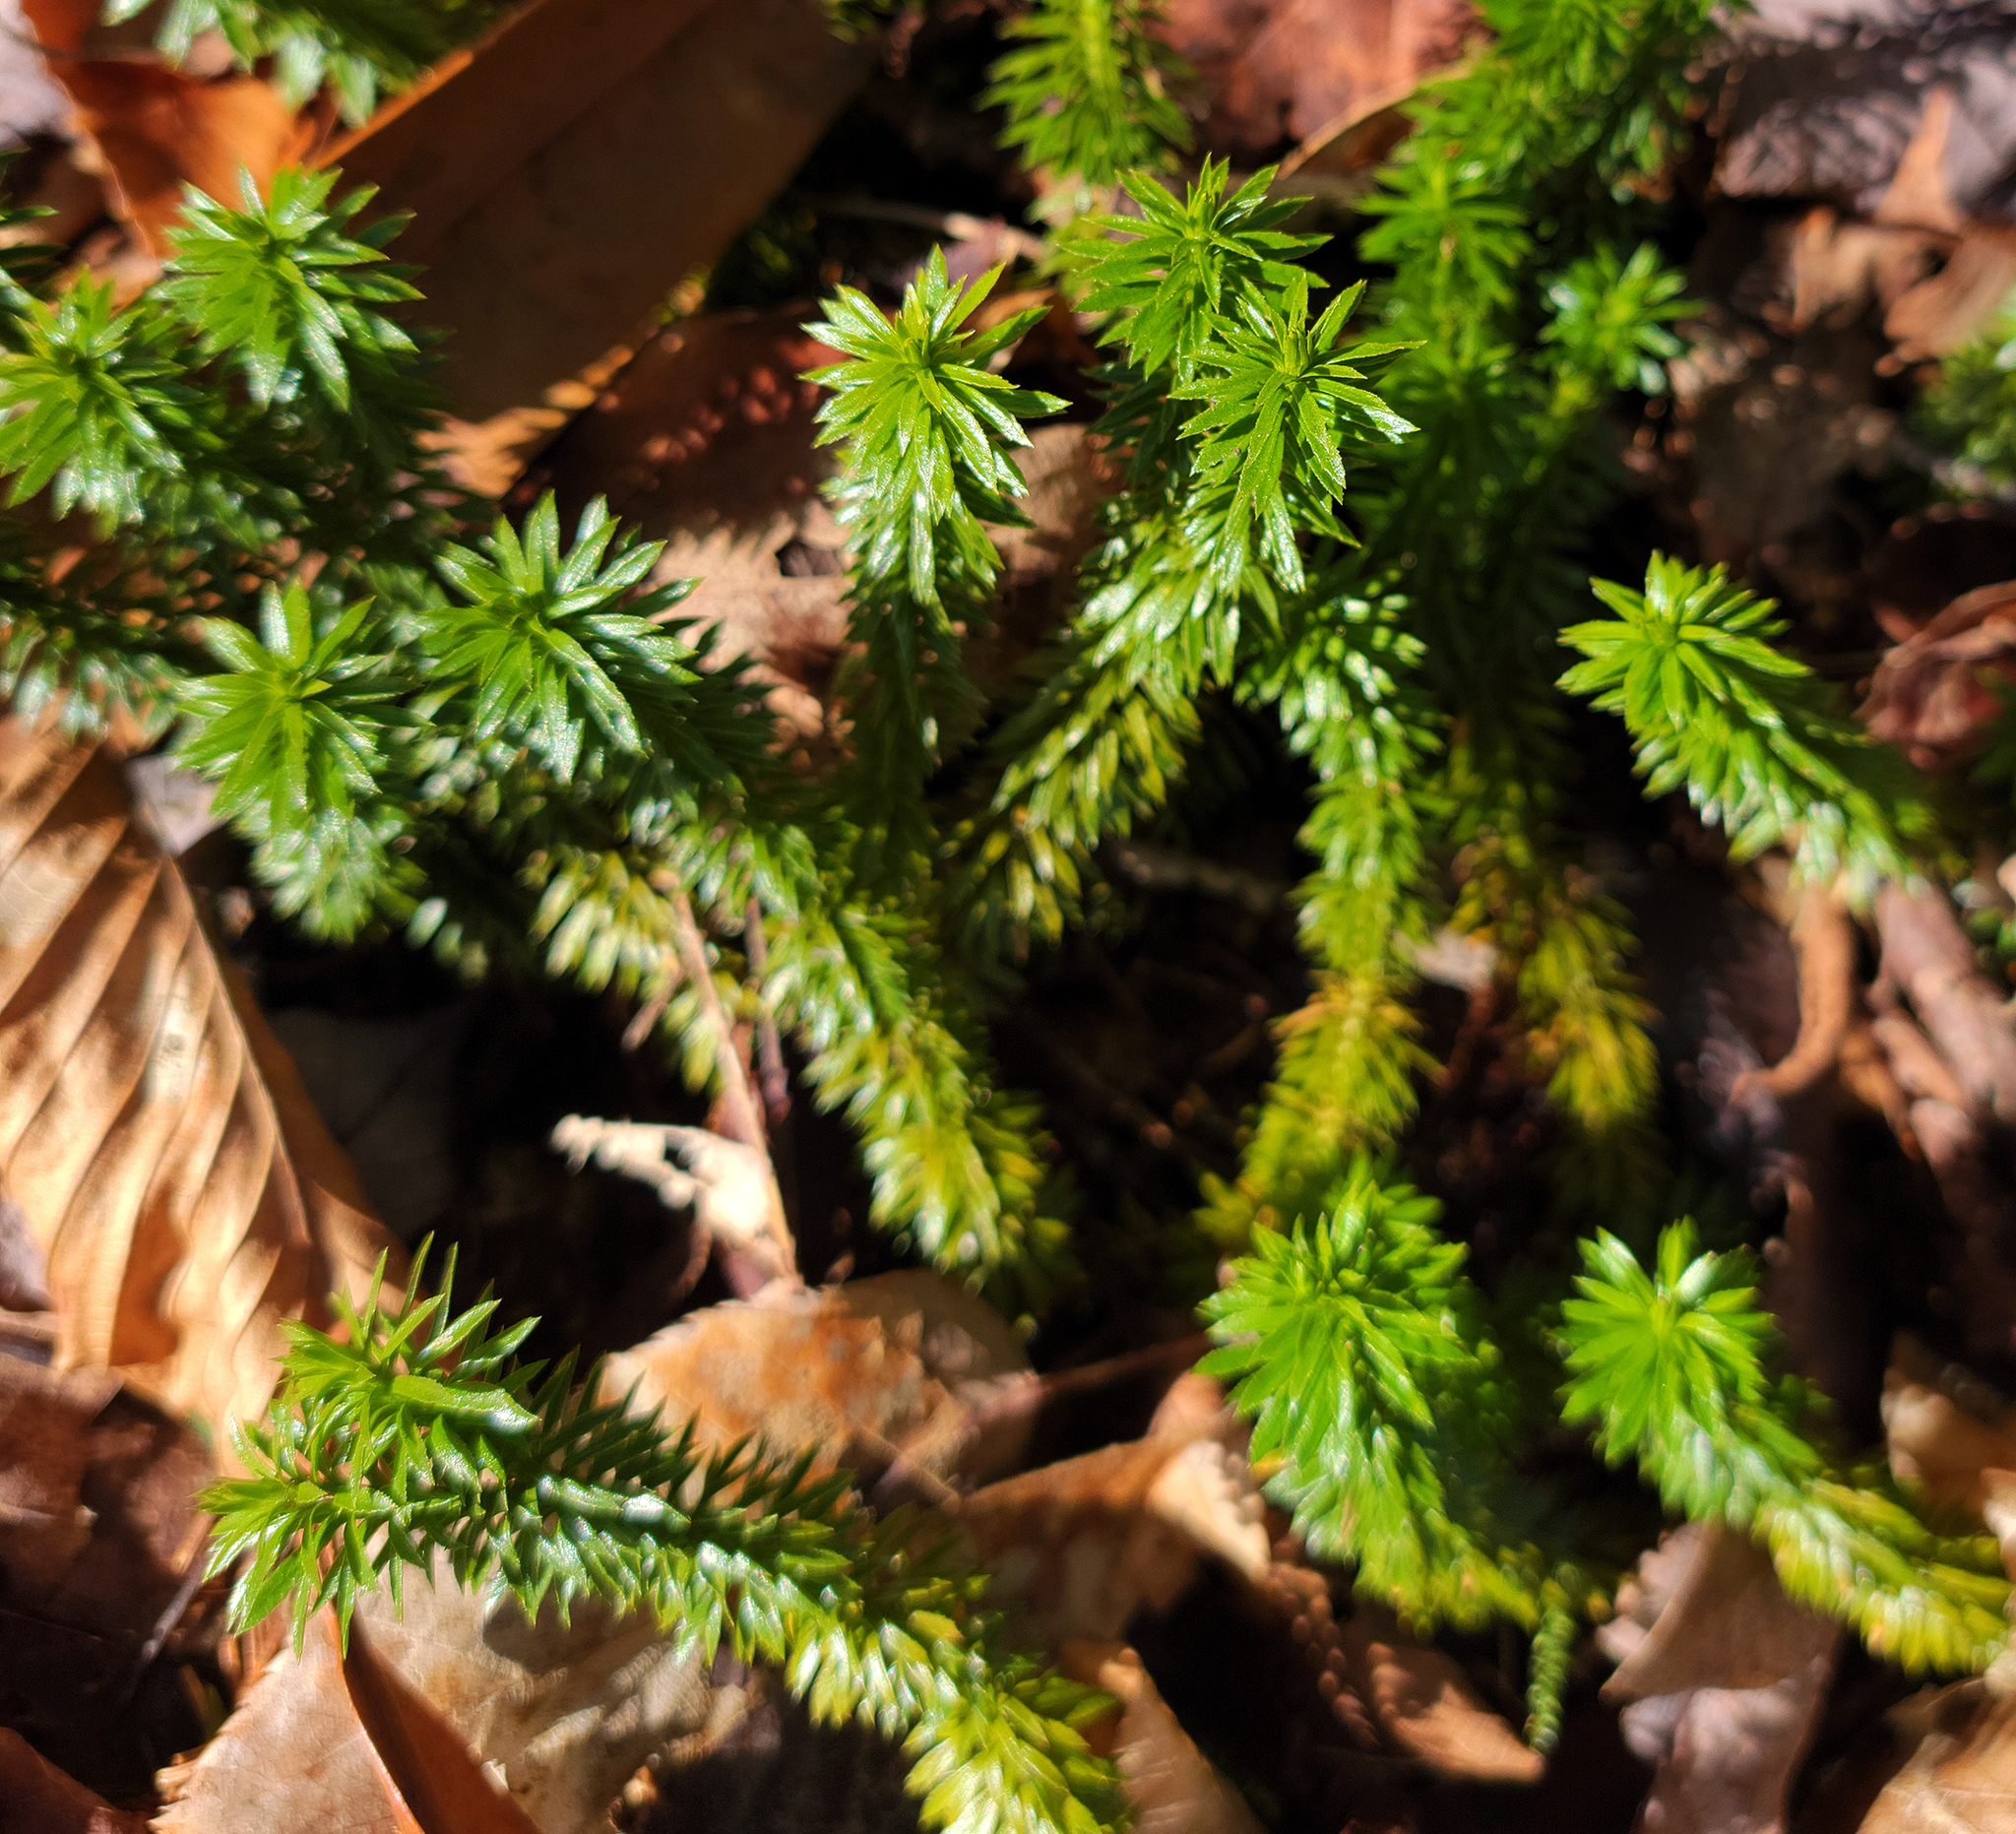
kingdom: Plantae
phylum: Tracheophyta
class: Lycopodiopsida
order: Lycopodiales
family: Lycopodiaceae
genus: Huperzia
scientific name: Huperzia lucidula
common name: Shining clubmoss
